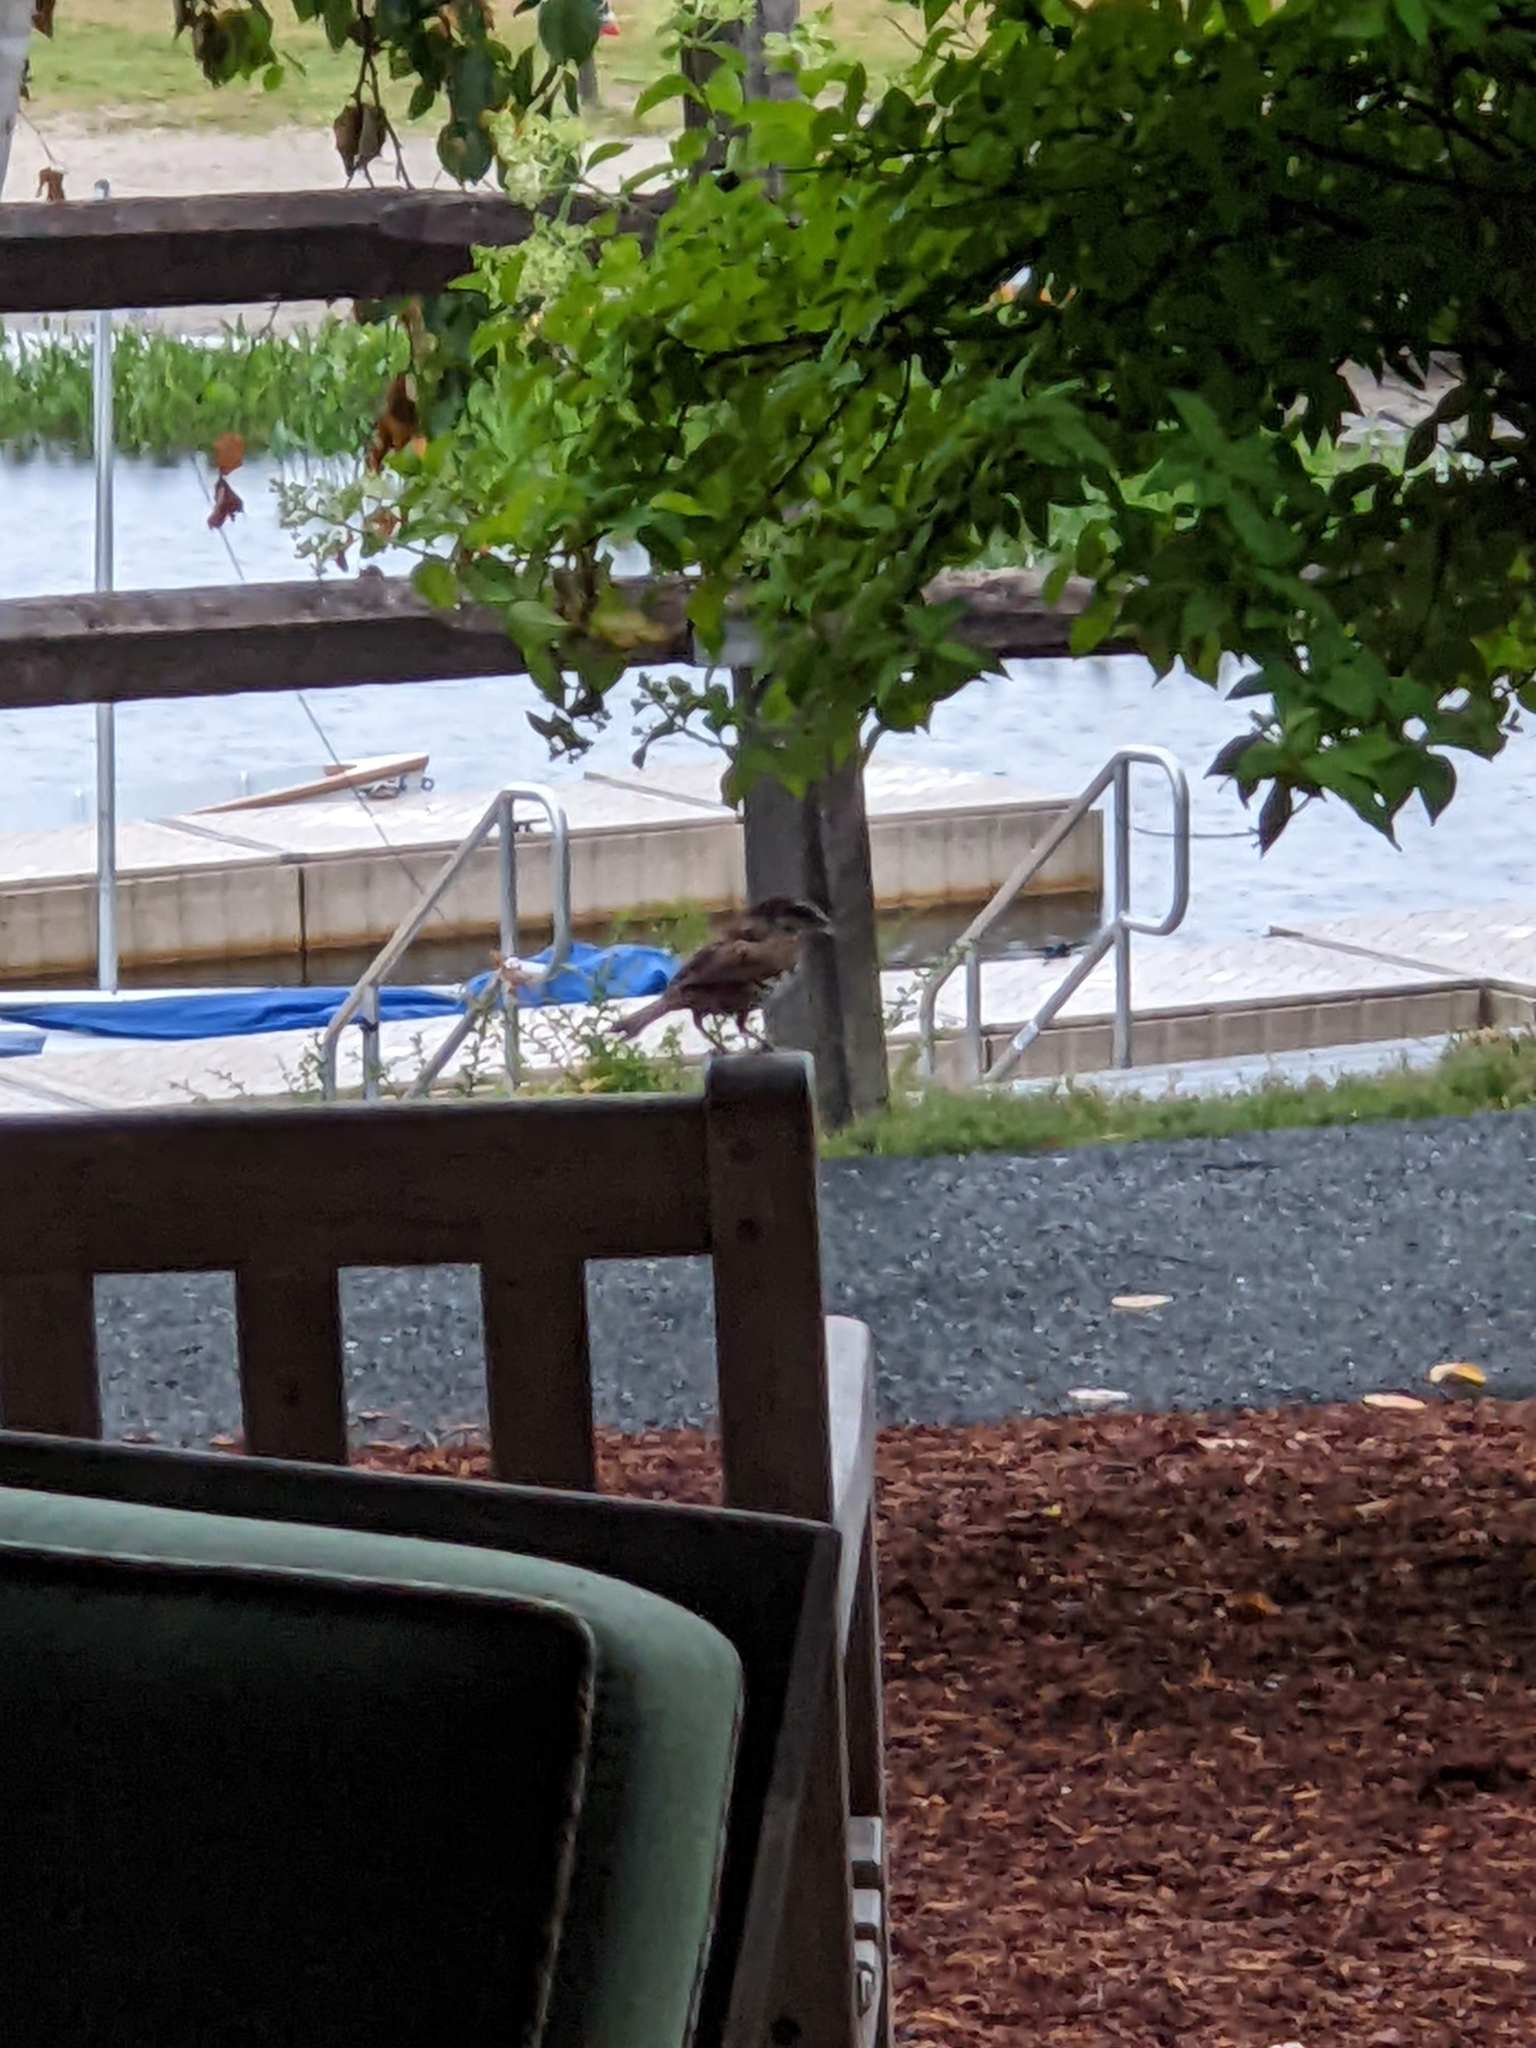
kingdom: Animalia
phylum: Chordata
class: Aves
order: Passeriformes
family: Passerellidae
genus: Melospiza
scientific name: Melospiza melodia
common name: Song sparrow
